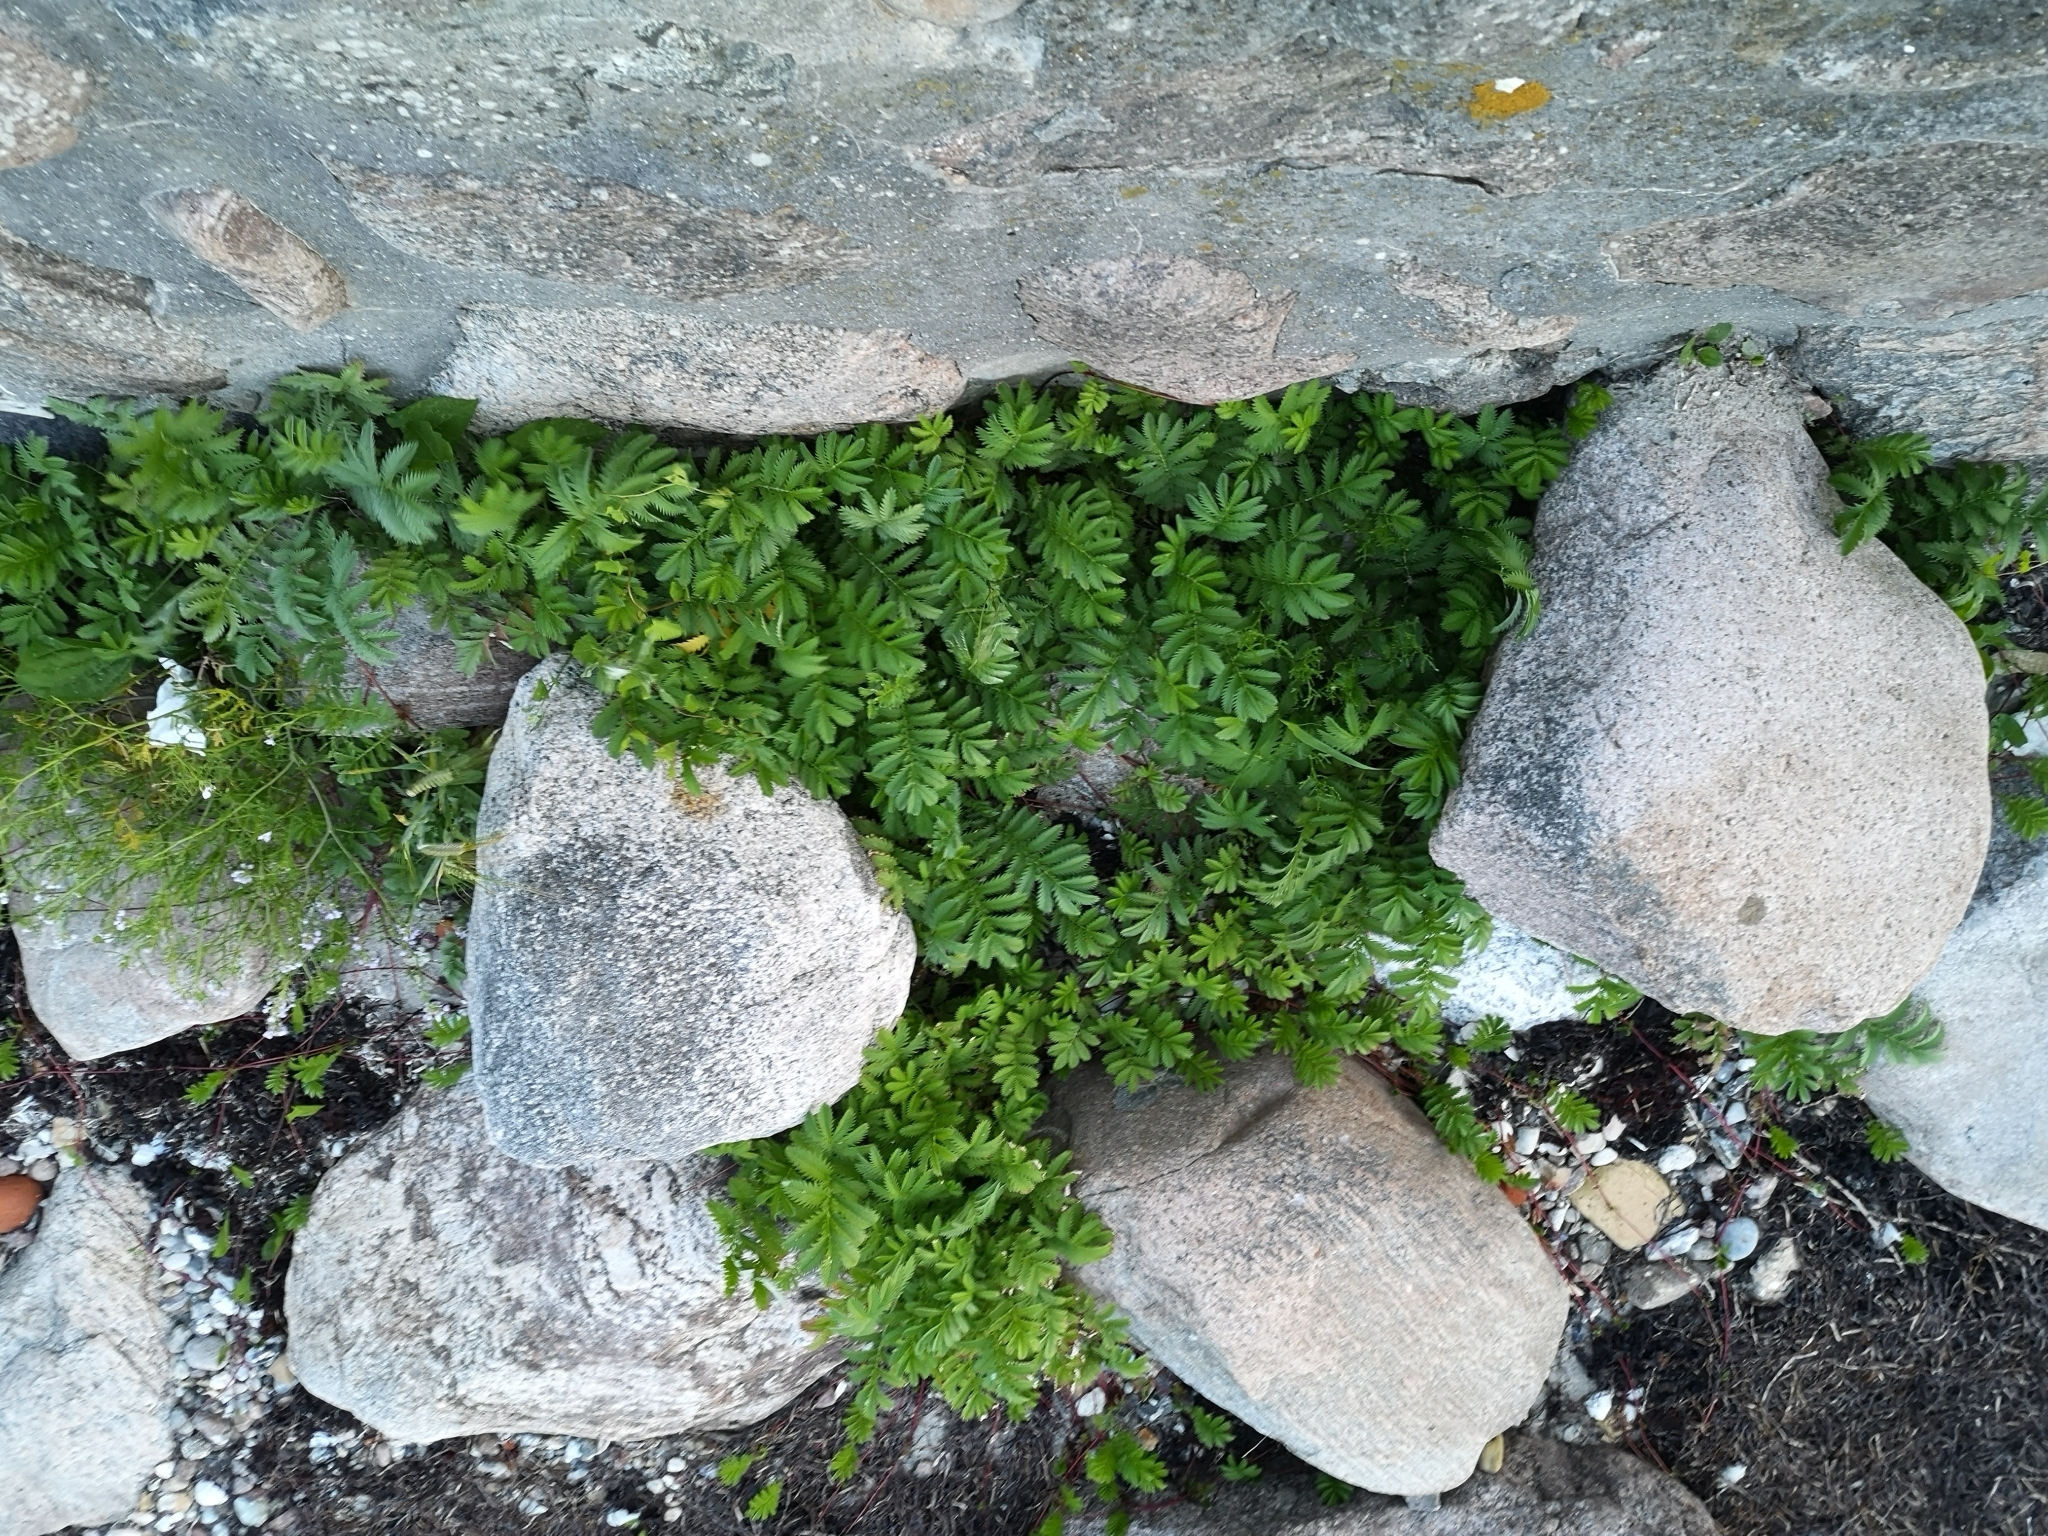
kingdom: Plantae
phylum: Tracheophyta
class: Magnoliopsida
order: Rosales
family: Rosaceae
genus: Argentina
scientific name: Argentina anserina
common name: Common silverweed
